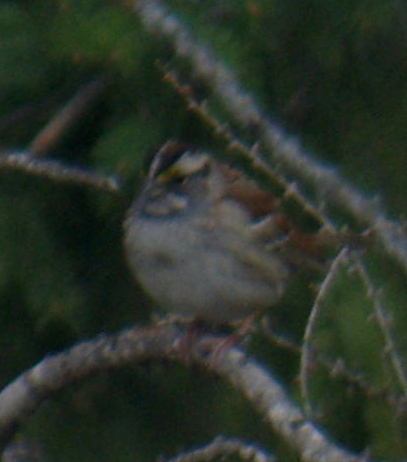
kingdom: Animalia
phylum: Chordata
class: Aves
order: Passeriformes
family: Passerellidae
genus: Zonotrichia
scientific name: Zonotrichia albicollis
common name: White-throated sparrow
